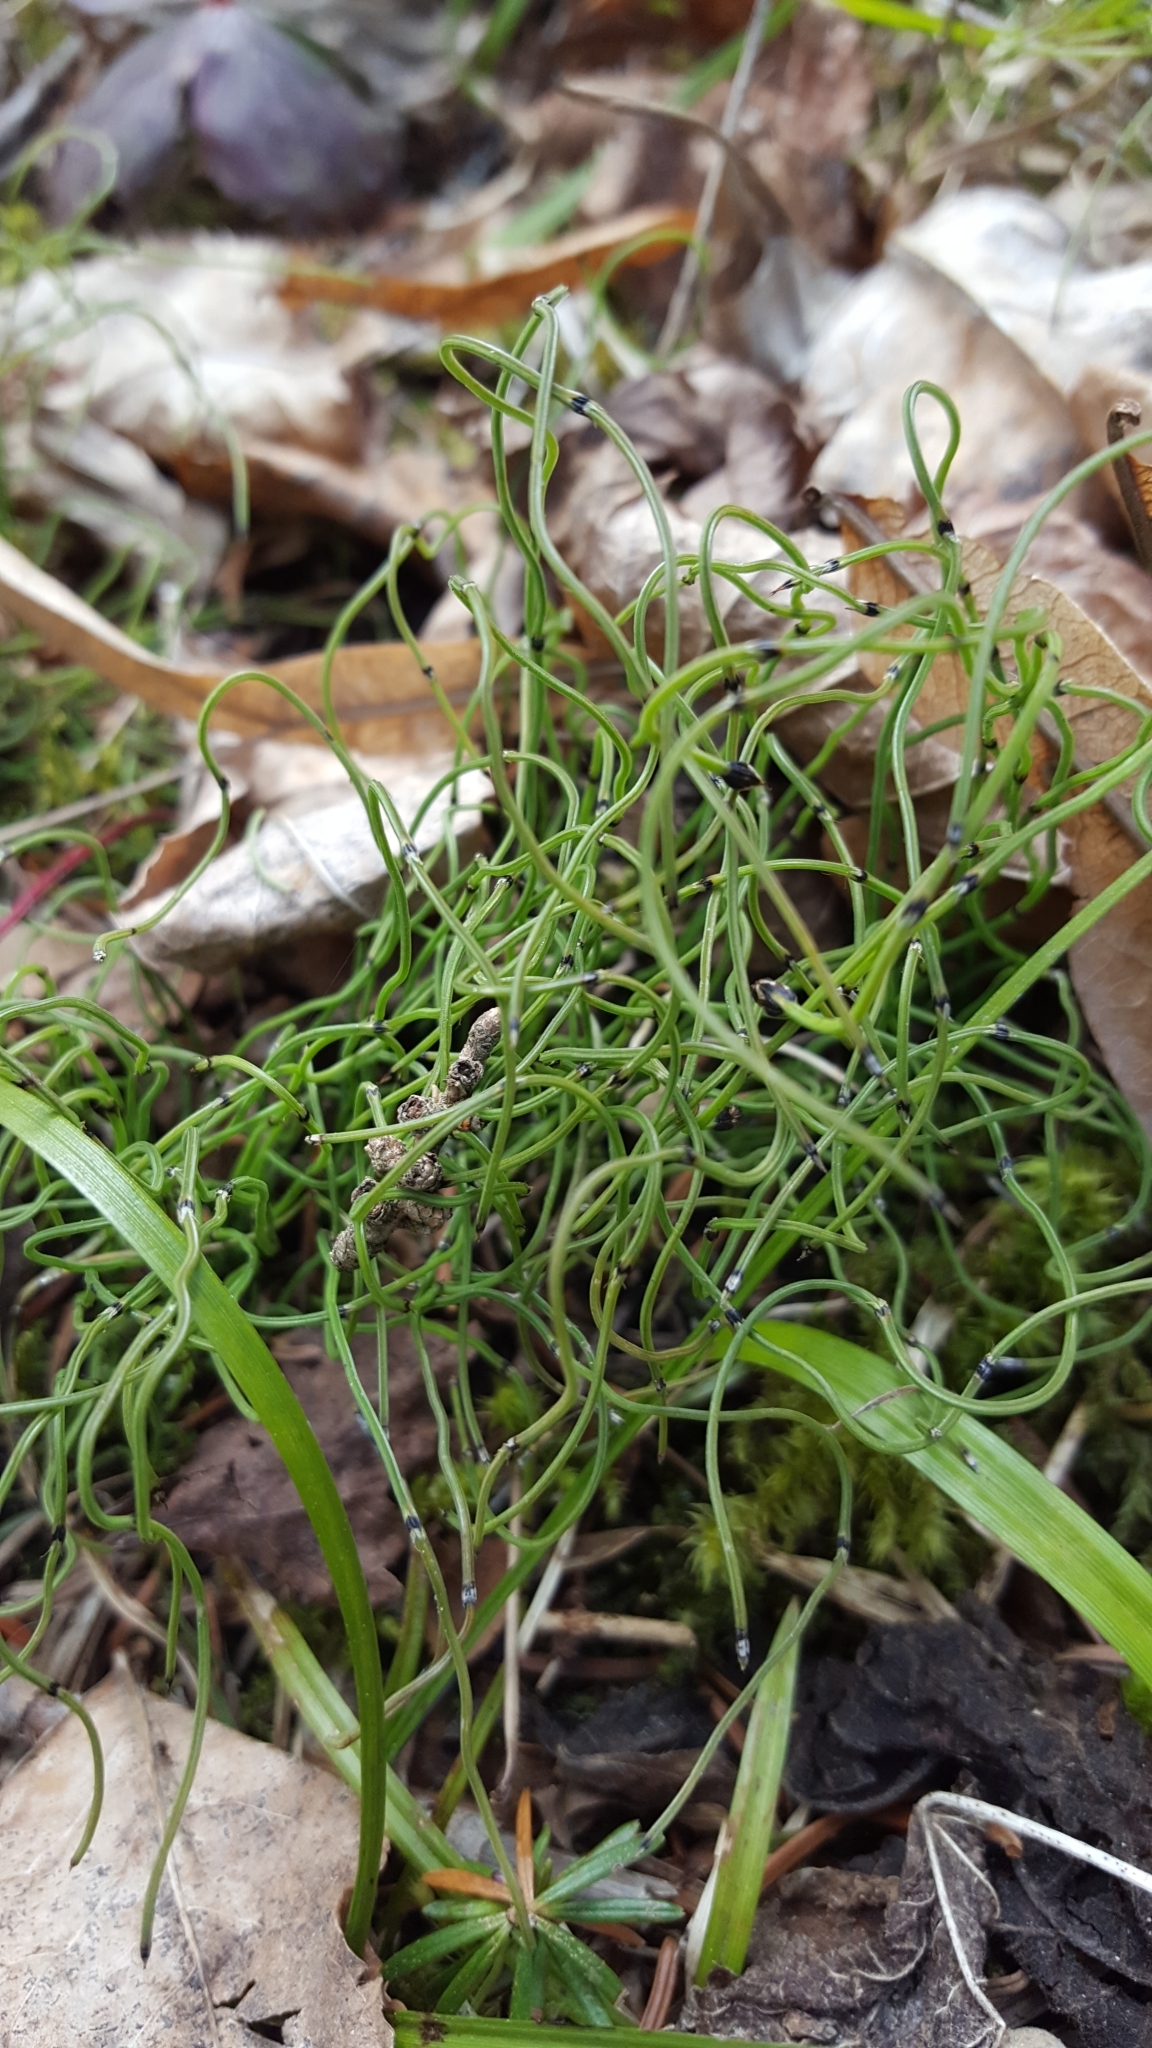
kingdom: Plantae
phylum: Tracheophyta
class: Polypodiopsida
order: Equisetales
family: Equisetaceae
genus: Equisetum
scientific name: Equisetum scirpoides
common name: Delicate horsetail
